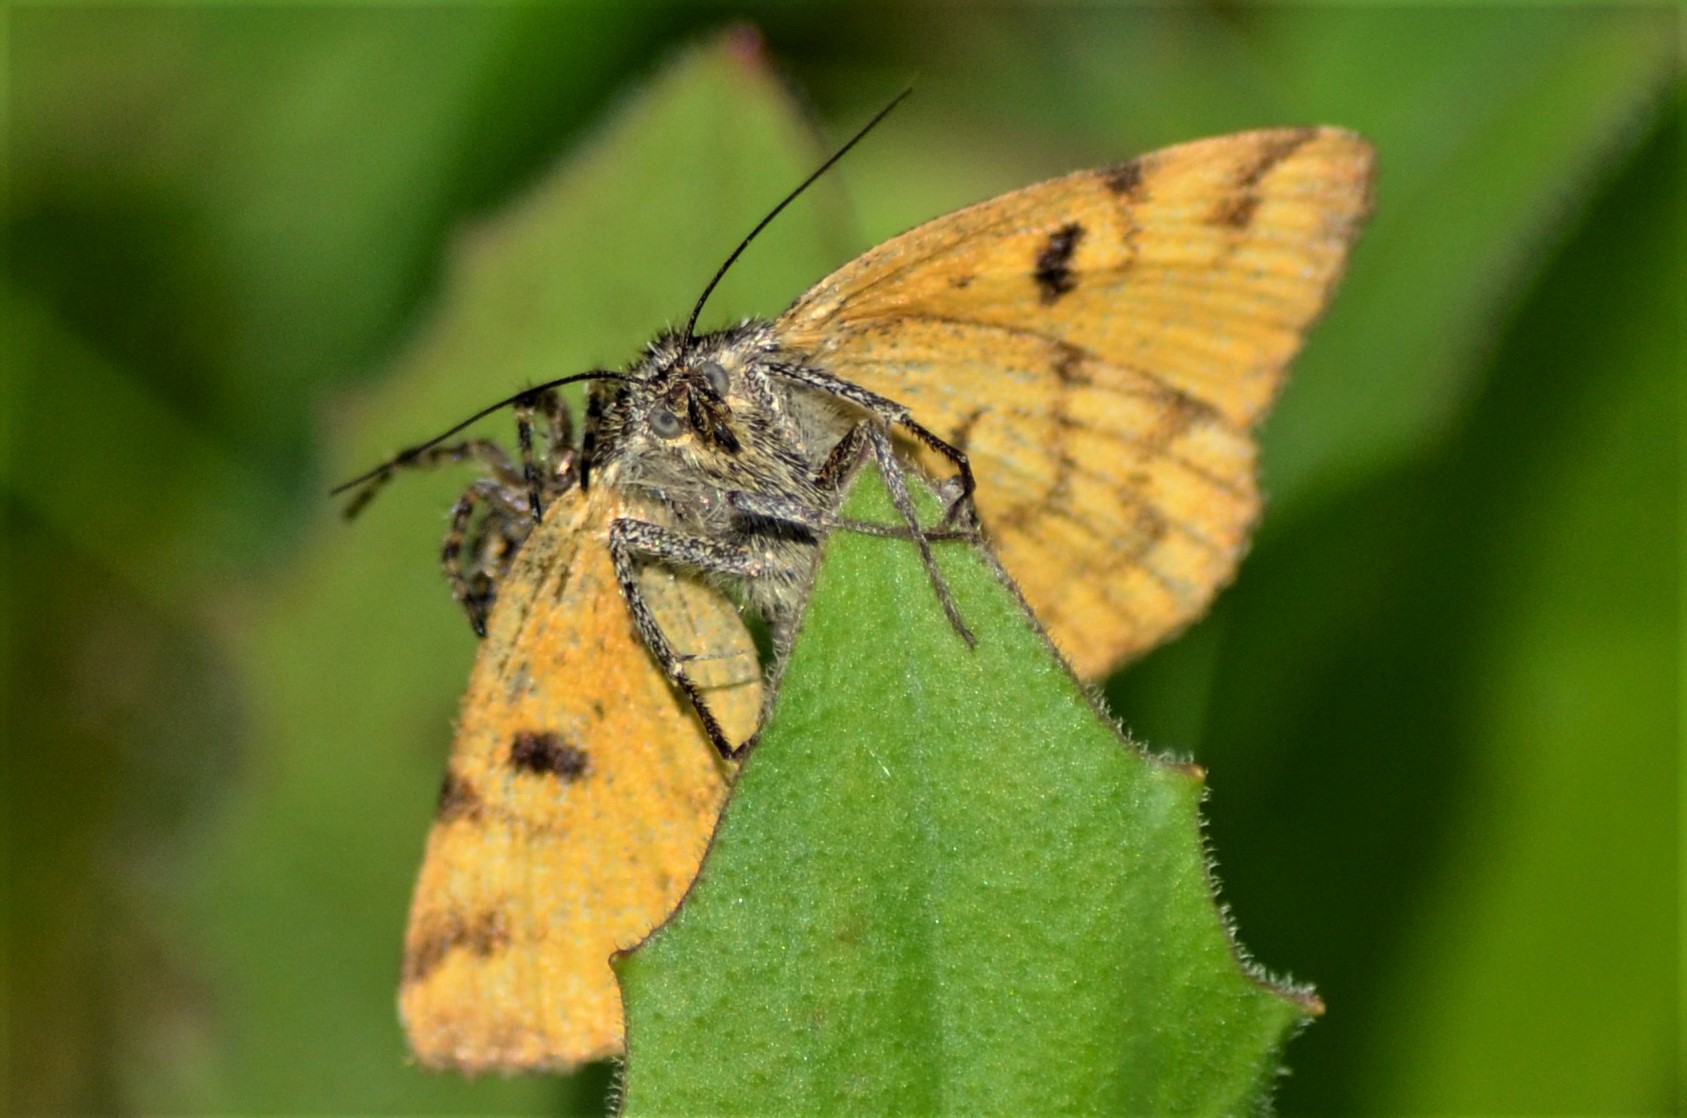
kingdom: Animalia
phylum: Arthropoda
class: Insecta
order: Lepidoptera
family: Erebidae
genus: Euclidia
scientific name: Euclidia glyphica
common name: Burnet companion
